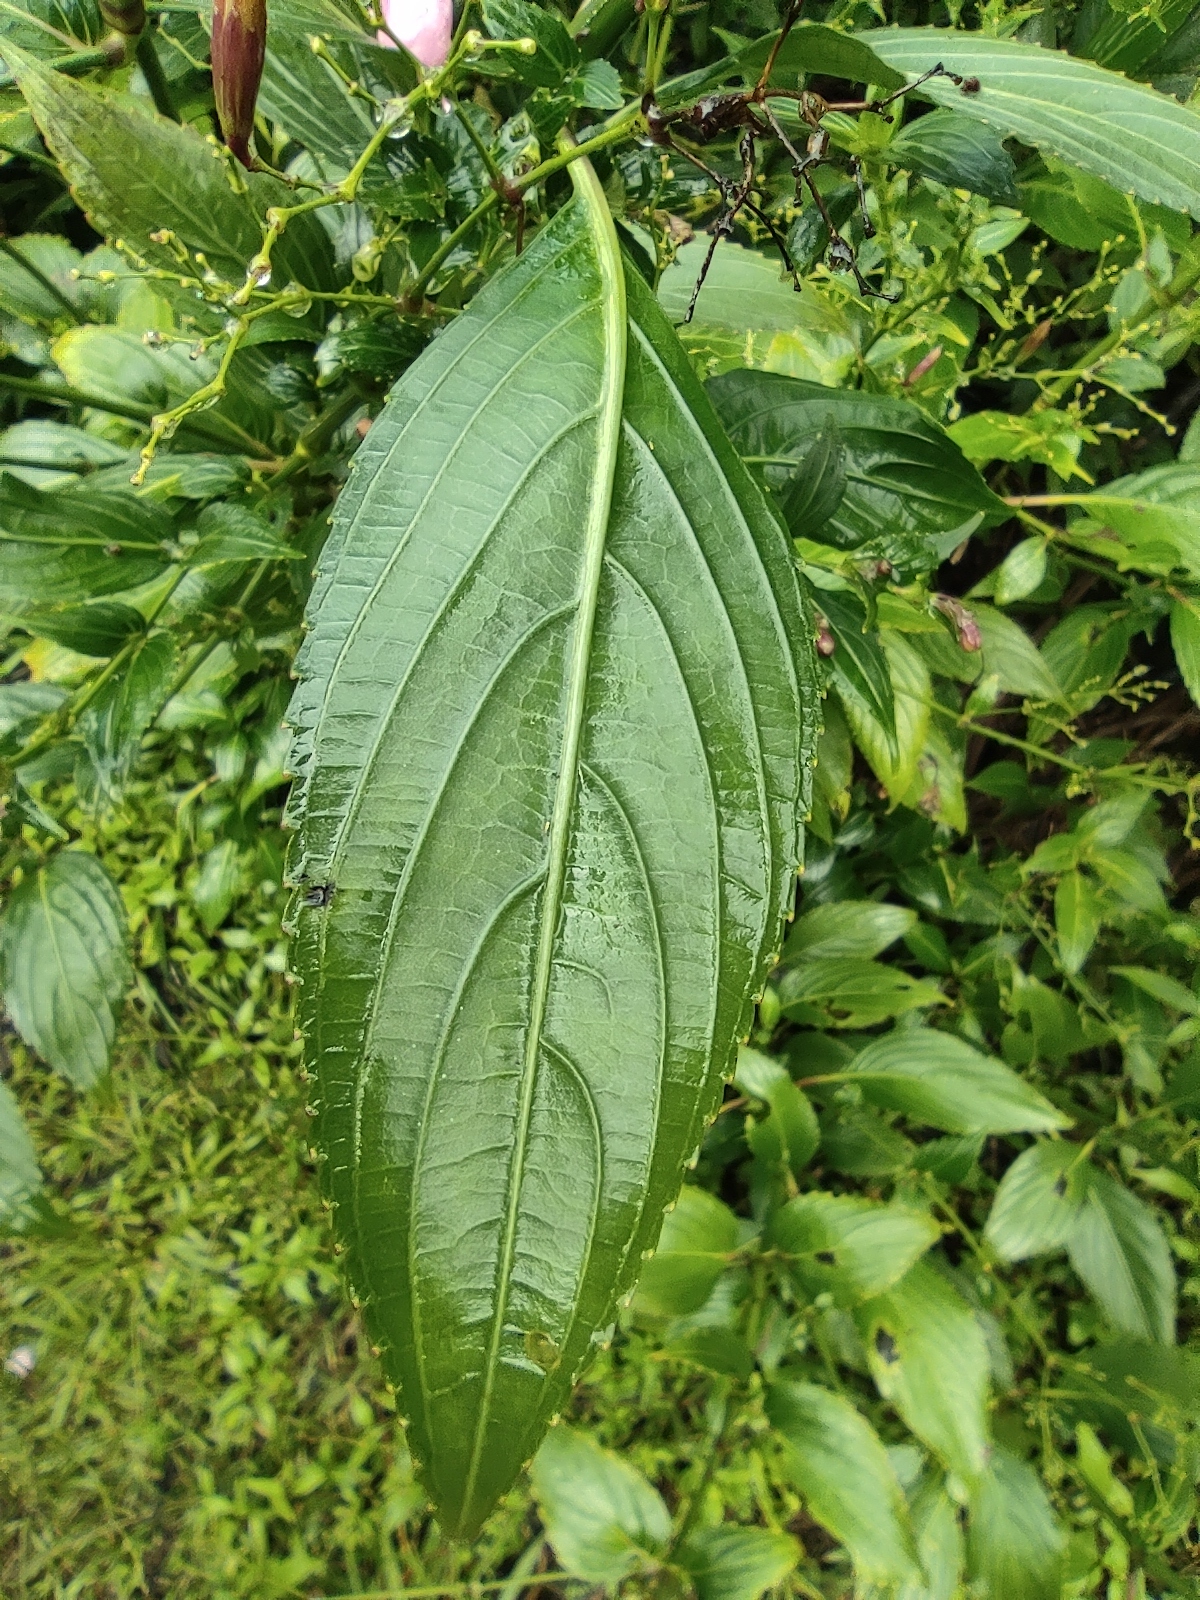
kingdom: Plantae
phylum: Tracheophyta
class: Magnoliopsida
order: Lamiales
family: Acanthaceae
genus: Strobilanthes
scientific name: Strobilanthes hamiltoniana
